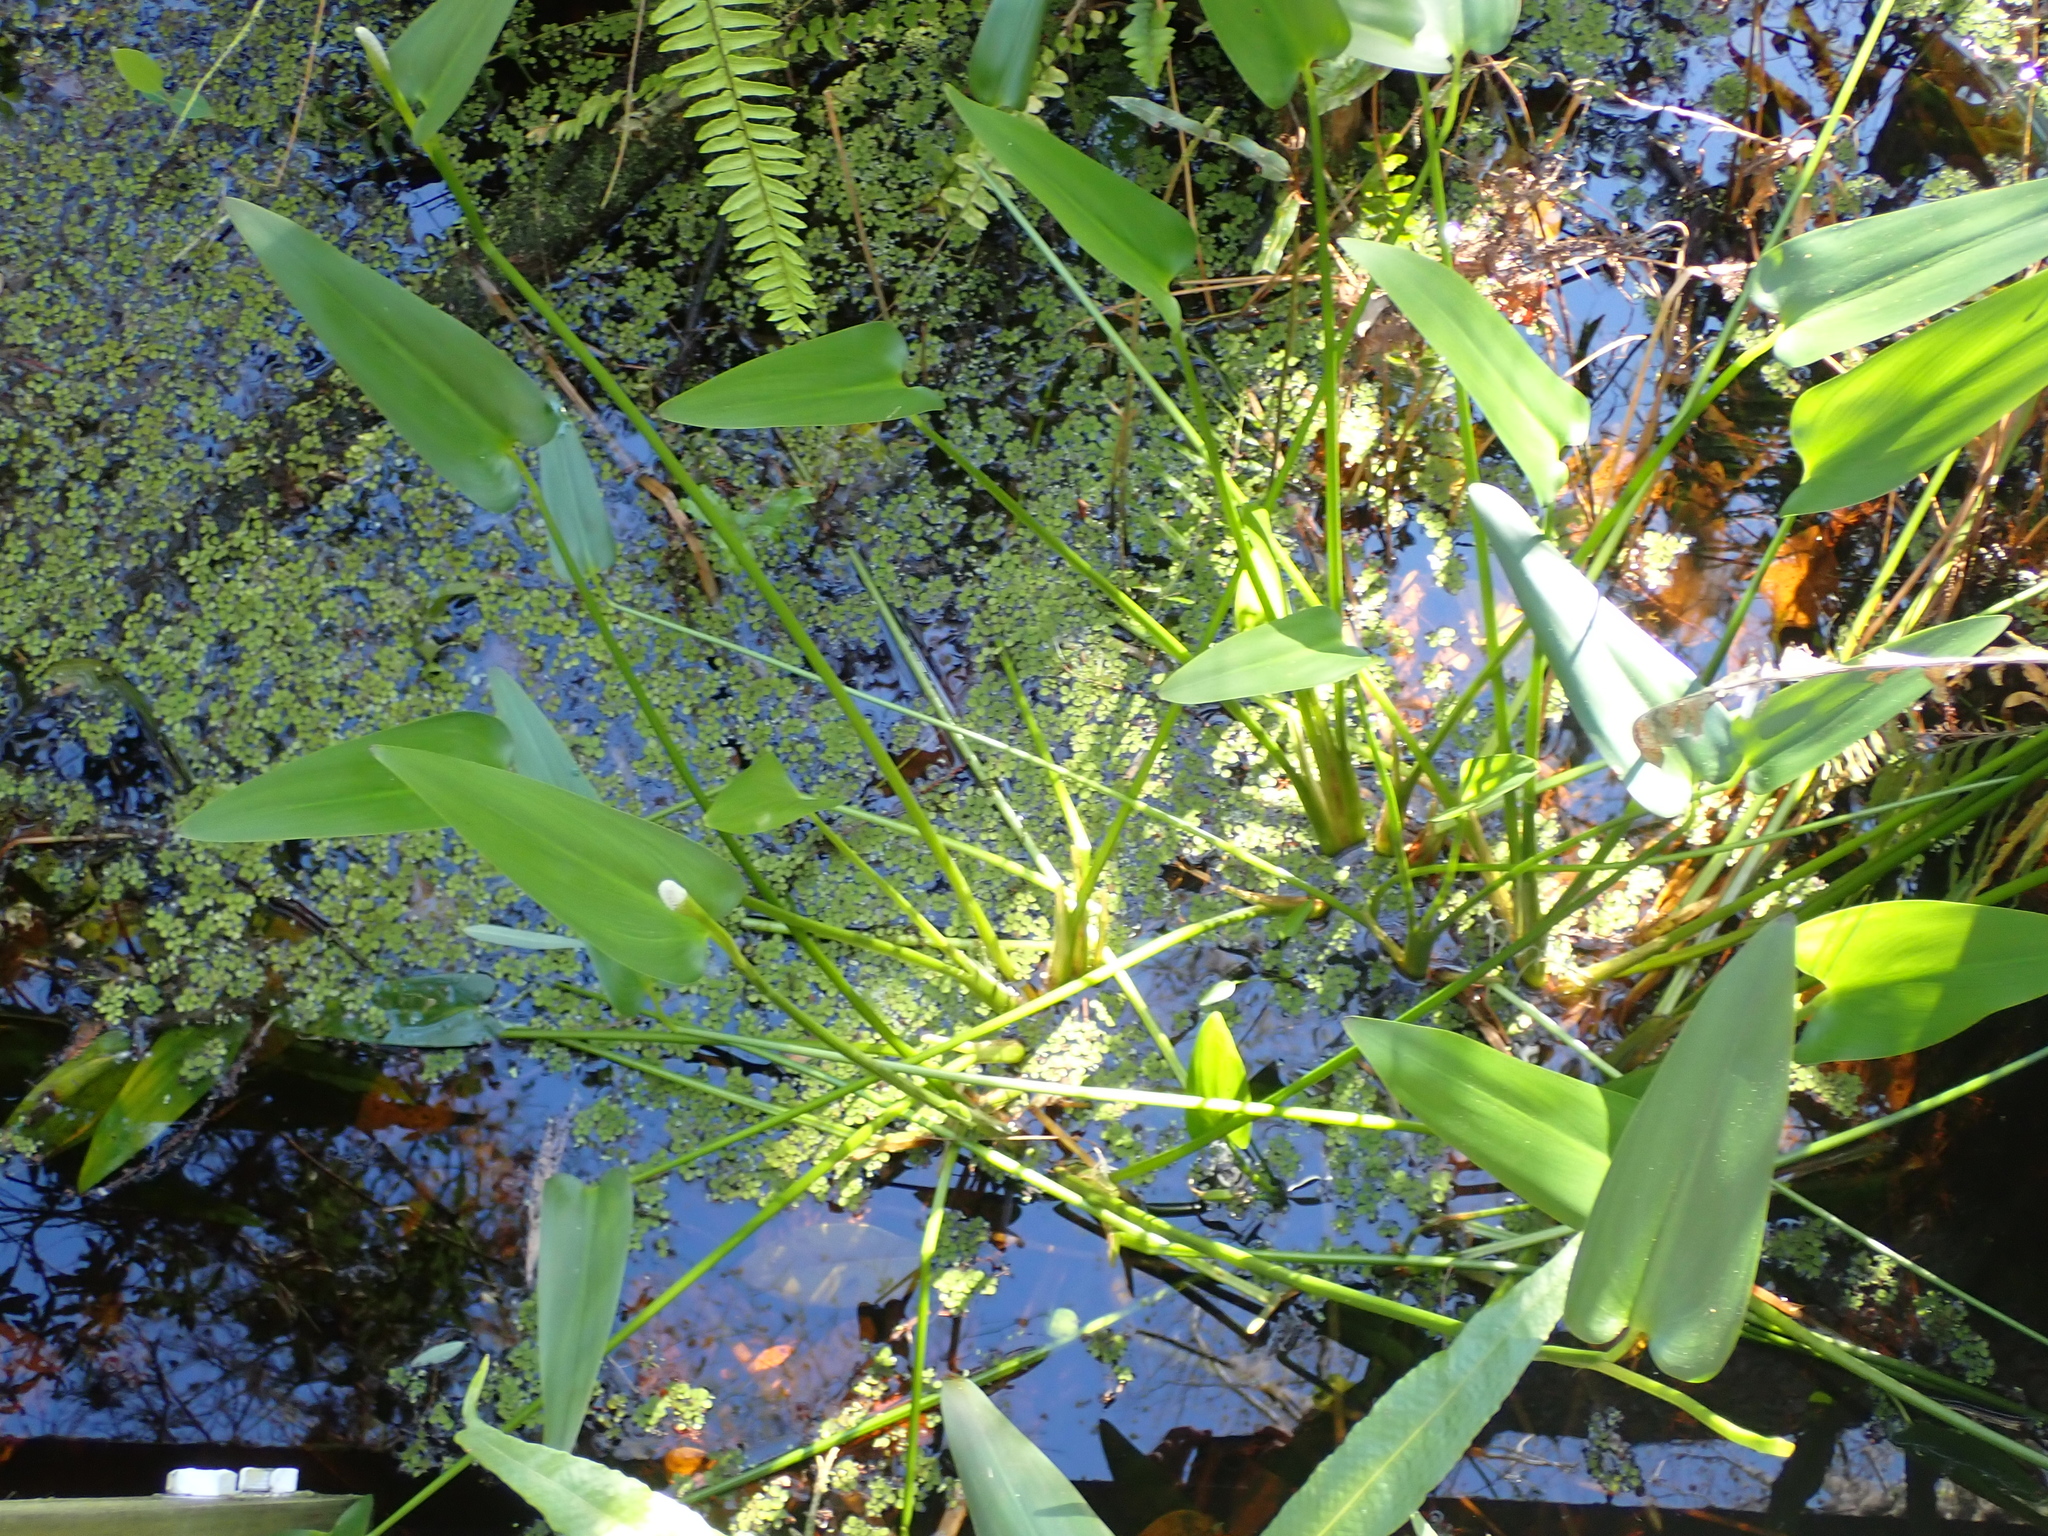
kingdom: Plantae
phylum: Tracheophyta
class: Liliopsida
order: Commelinales
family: Pontederiaceae
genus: Pontederia
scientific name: Pontederia cordata
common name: Pickerelweed
